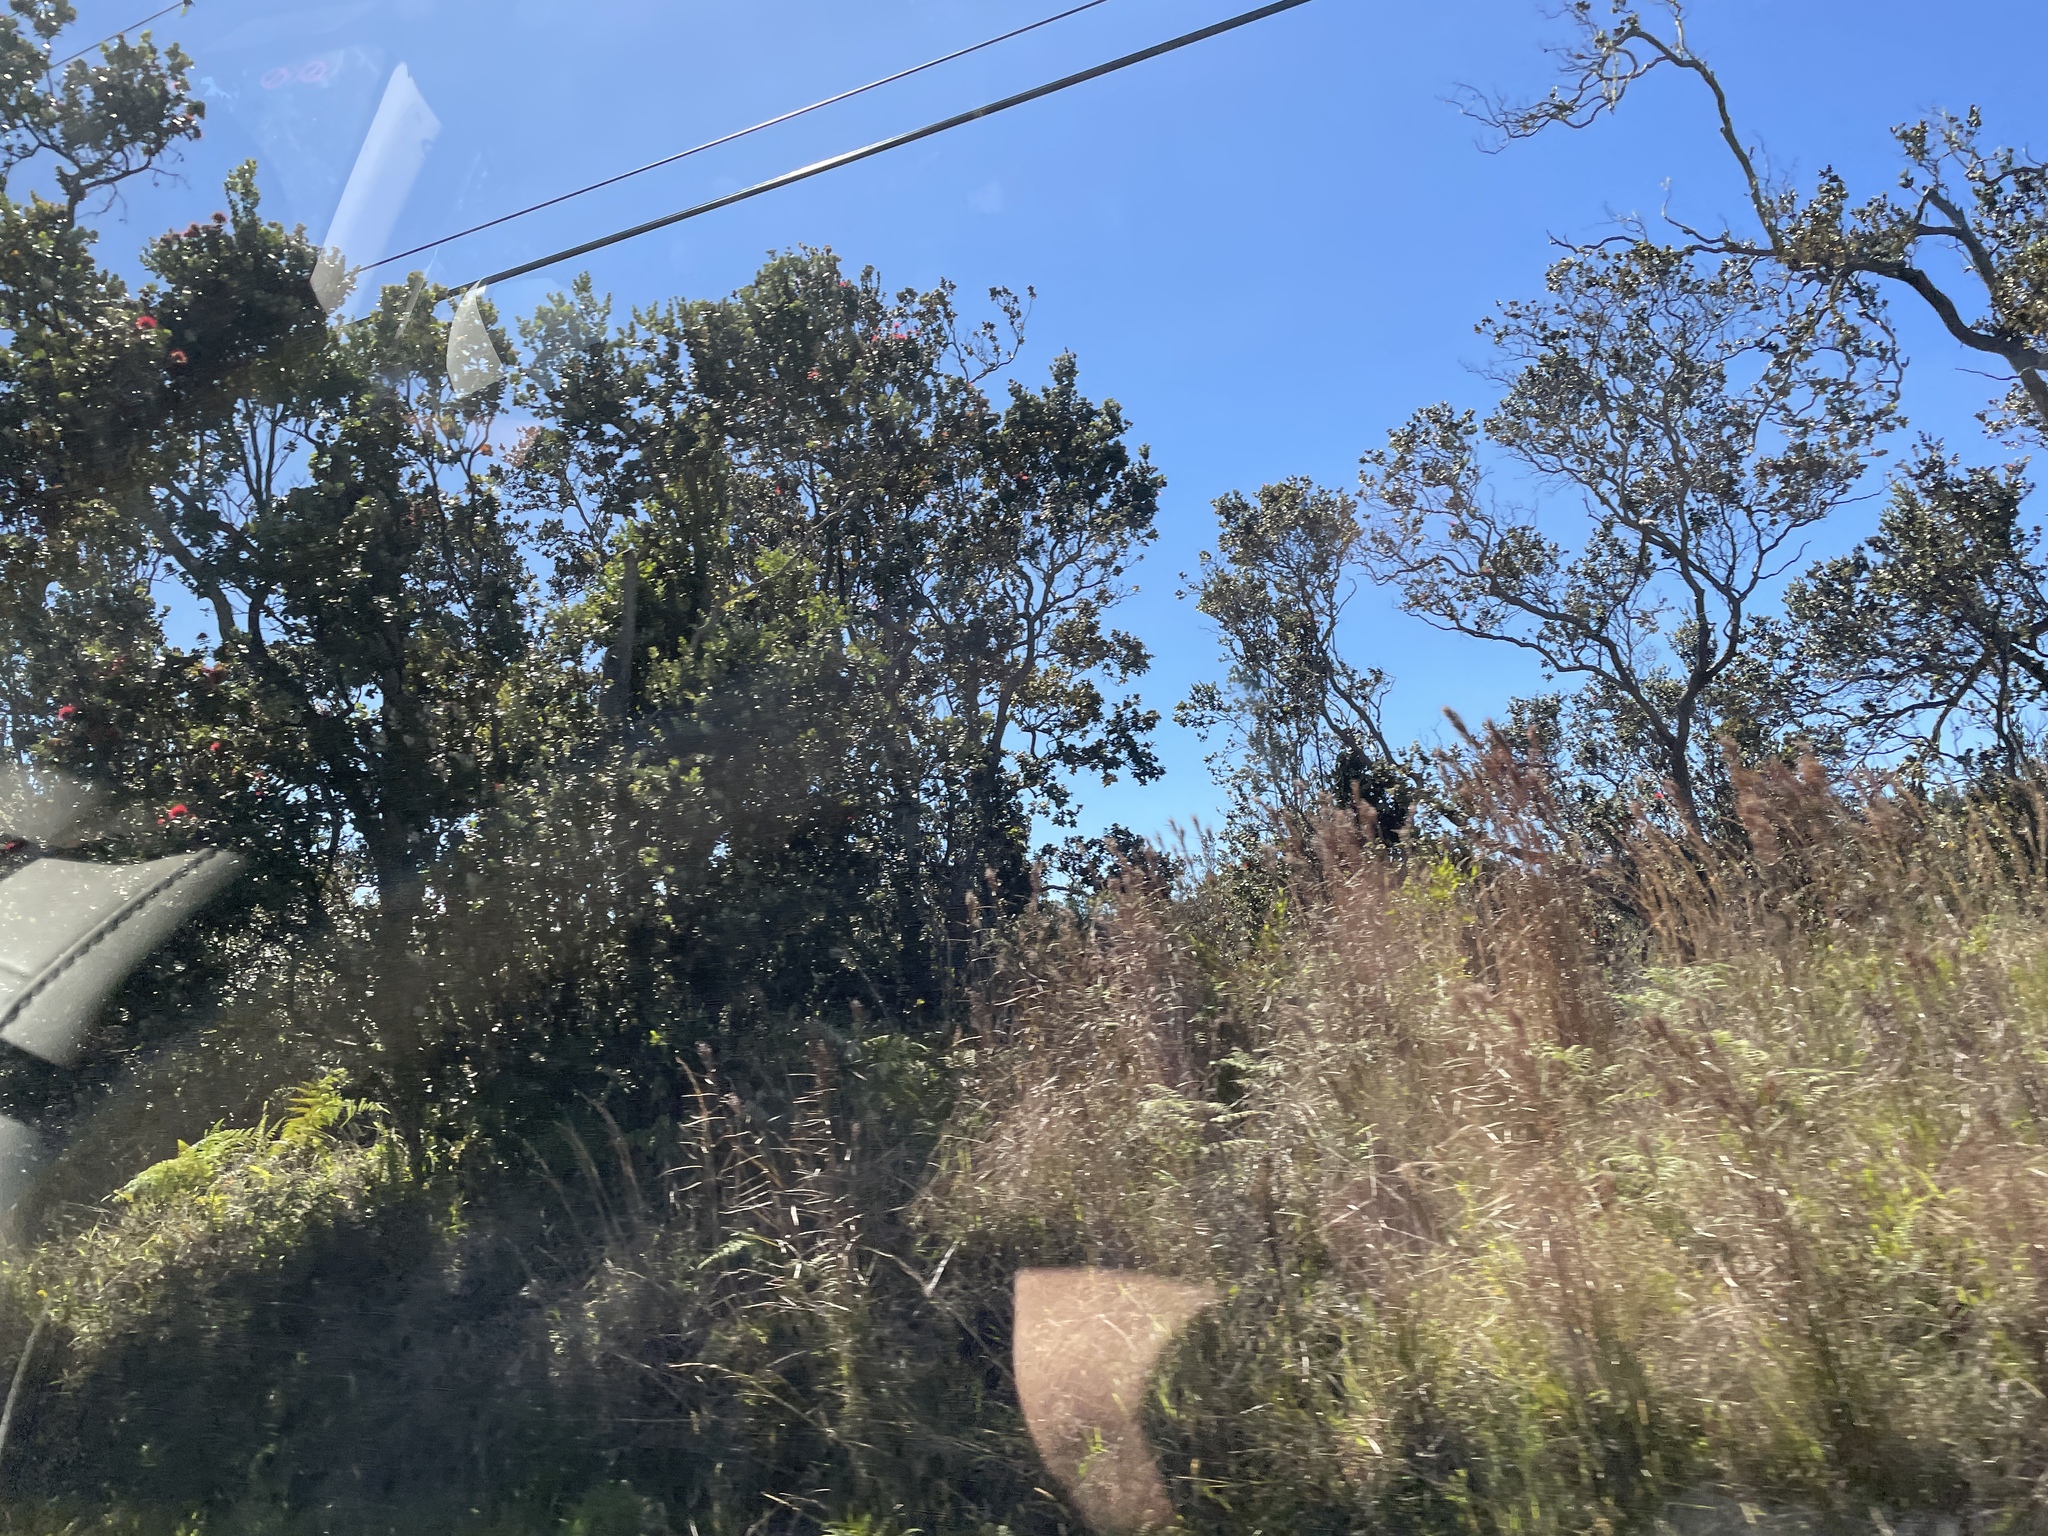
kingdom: Plantae
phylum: Tracheophyta
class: Magnoliopsida
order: Myrtales
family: Myrtaceae
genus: Metrosideros
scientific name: Metrosideros polymorpha
